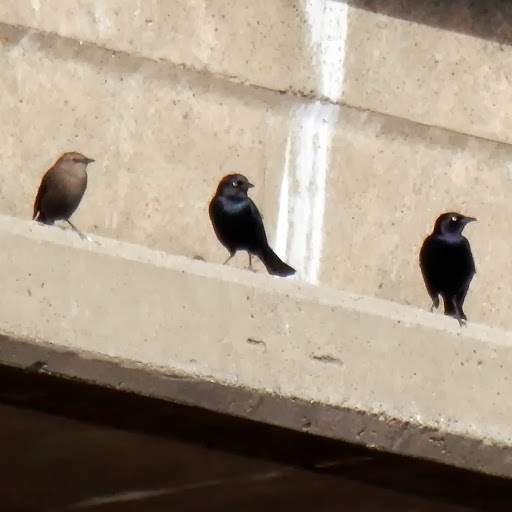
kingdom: Animalia
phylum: Chordata
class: Aves
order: Passeriformes
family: Icteridae
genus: Euphagus
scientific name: Euphagus cyanocephalus
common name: Brewer's blackbird
